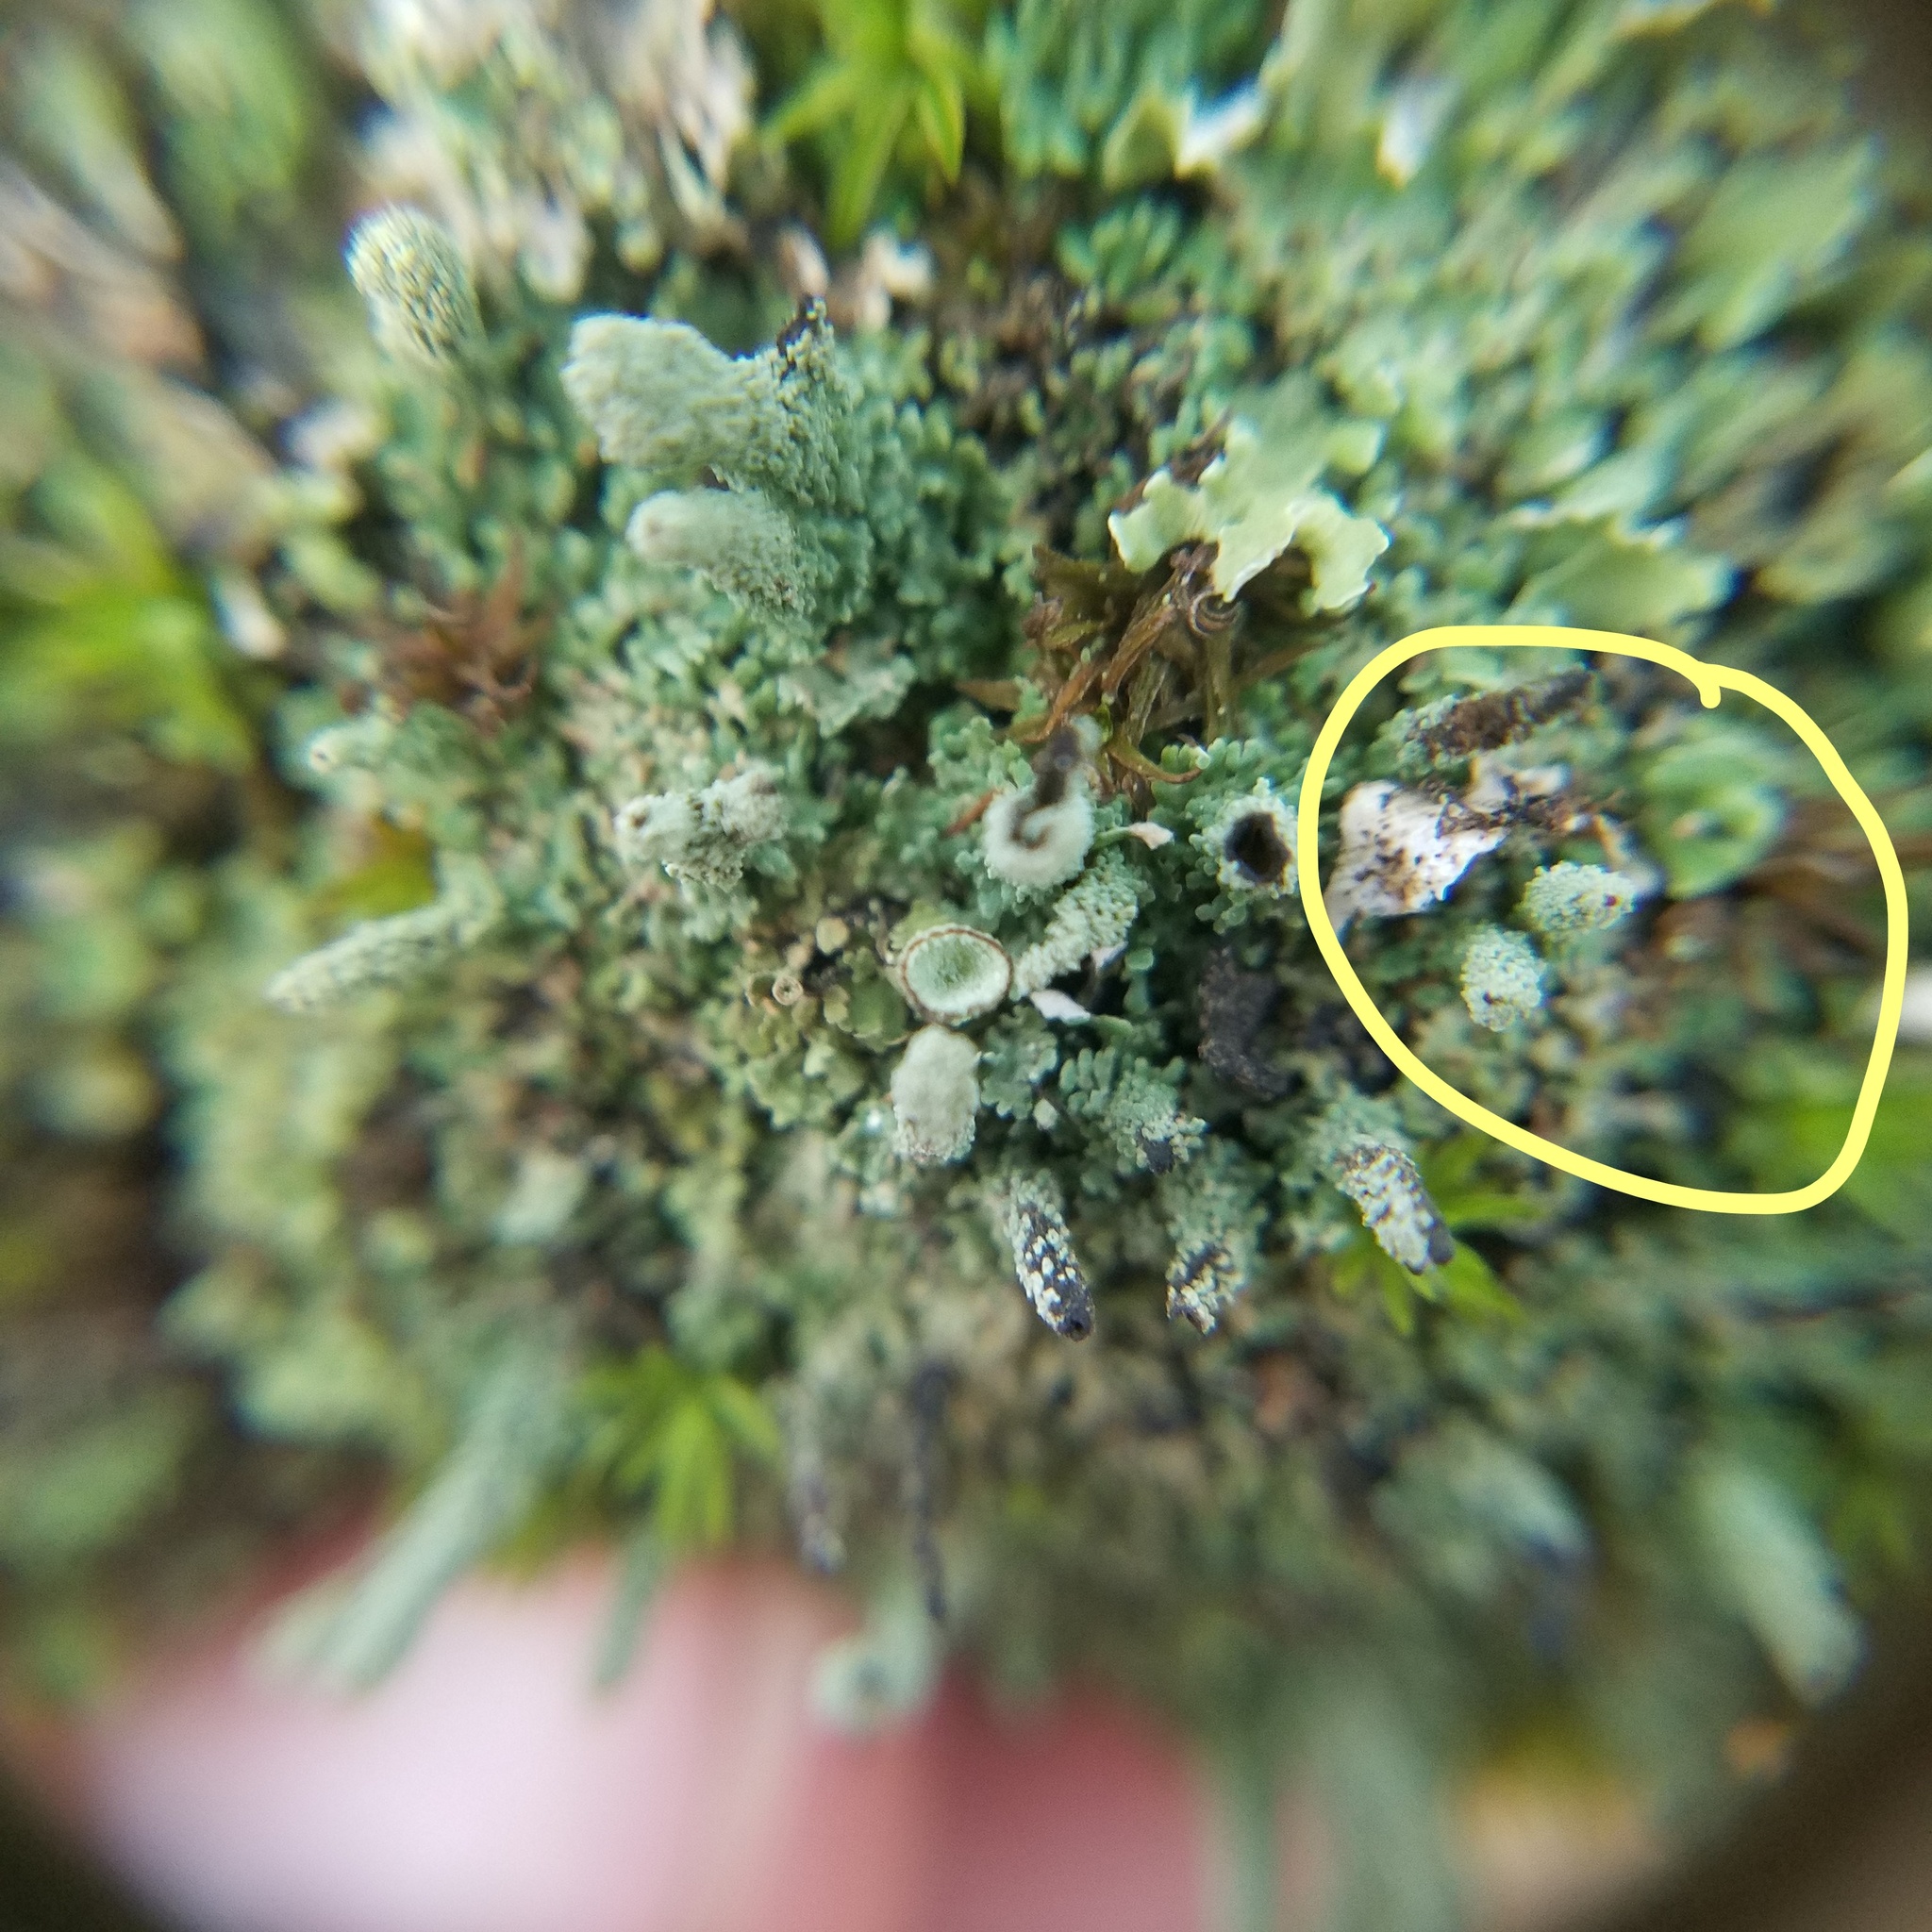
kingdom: Fungi
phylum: Ascomycota
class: Lecanoromycetes
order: Lecanorales
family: Cladoniaceae
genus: Cladonia
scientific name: Cladonia didyma
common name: Southern soldiers
